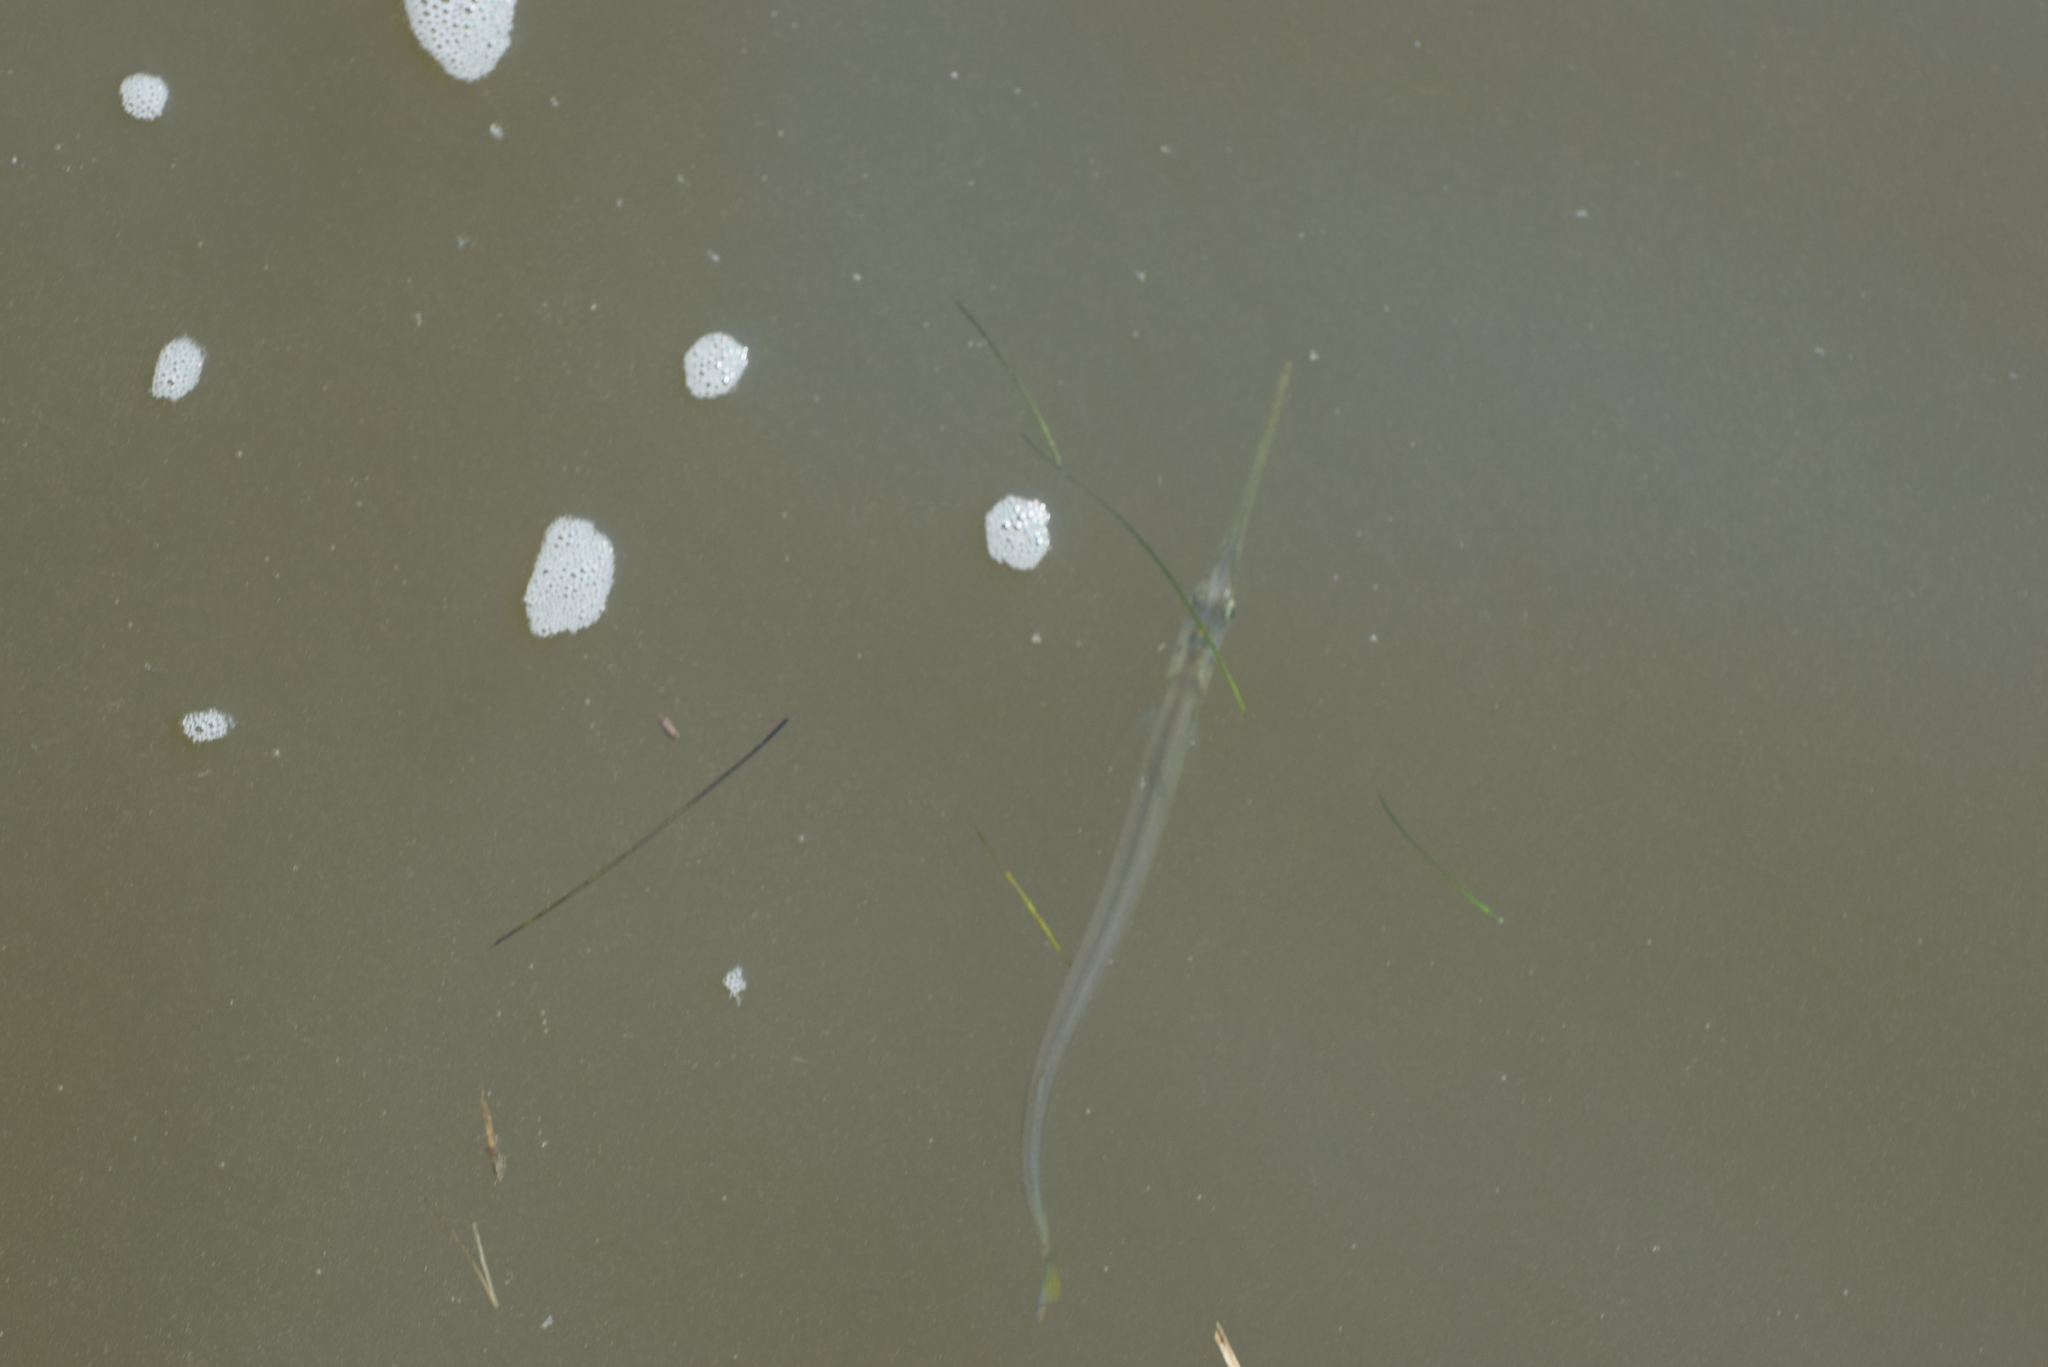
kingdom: Animalia
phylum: Chordata
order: Beloniformes
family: Belonidae
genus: Strongylura
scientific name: Strongylura marina
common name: Atlantic needlefish
